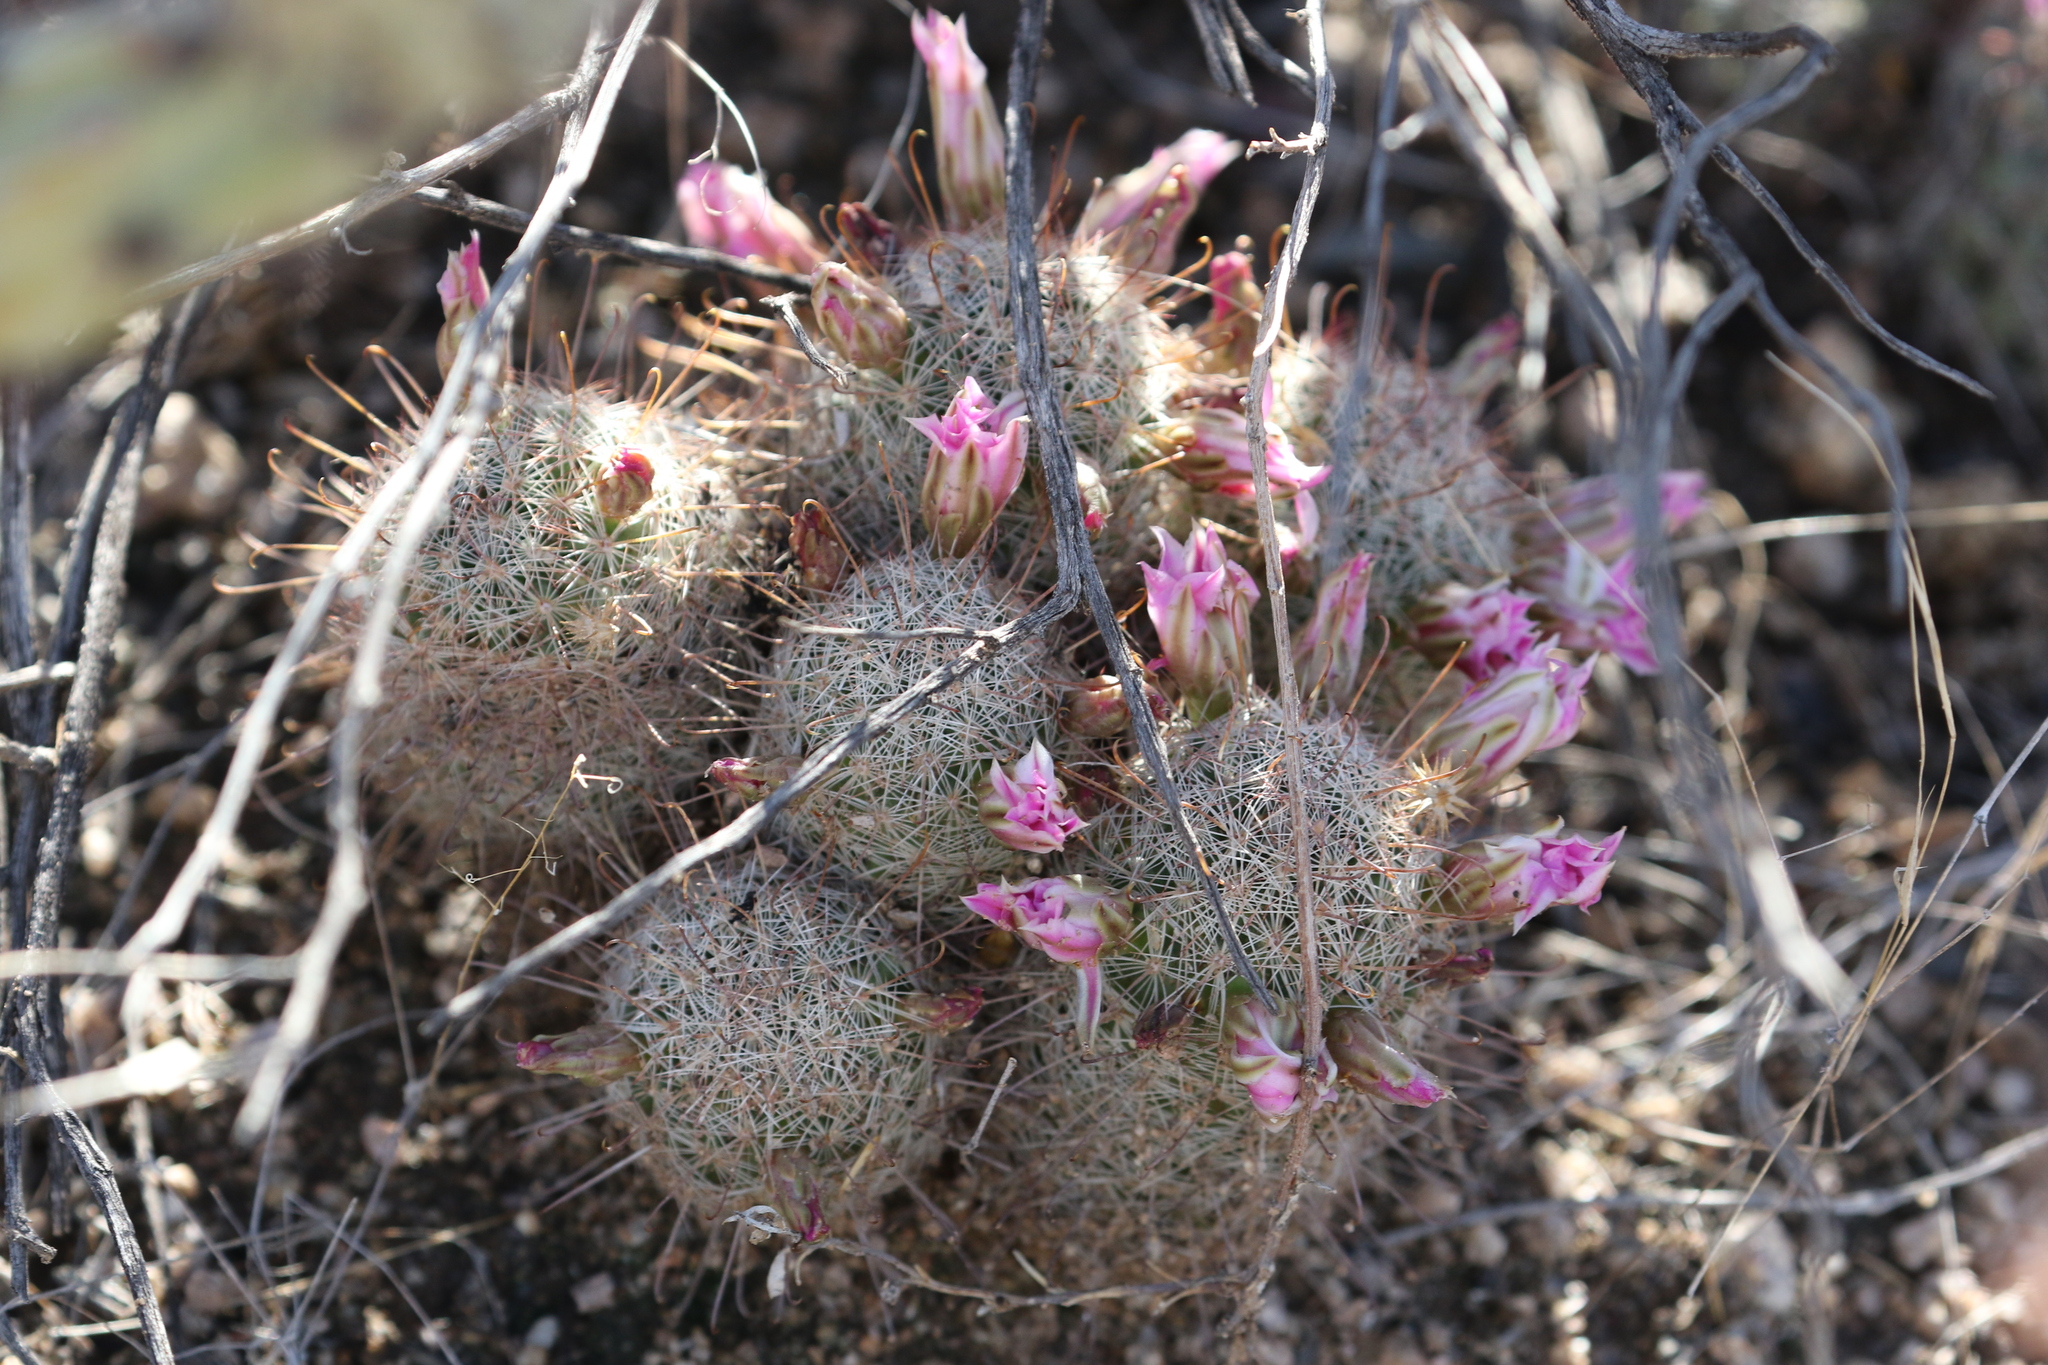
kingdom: Plantae
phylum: Tracheophyta
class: Magnoliopsida
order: Caryophyllales
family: Cactaceae
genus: Cochemiea
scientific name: Cochemiea grahamii
